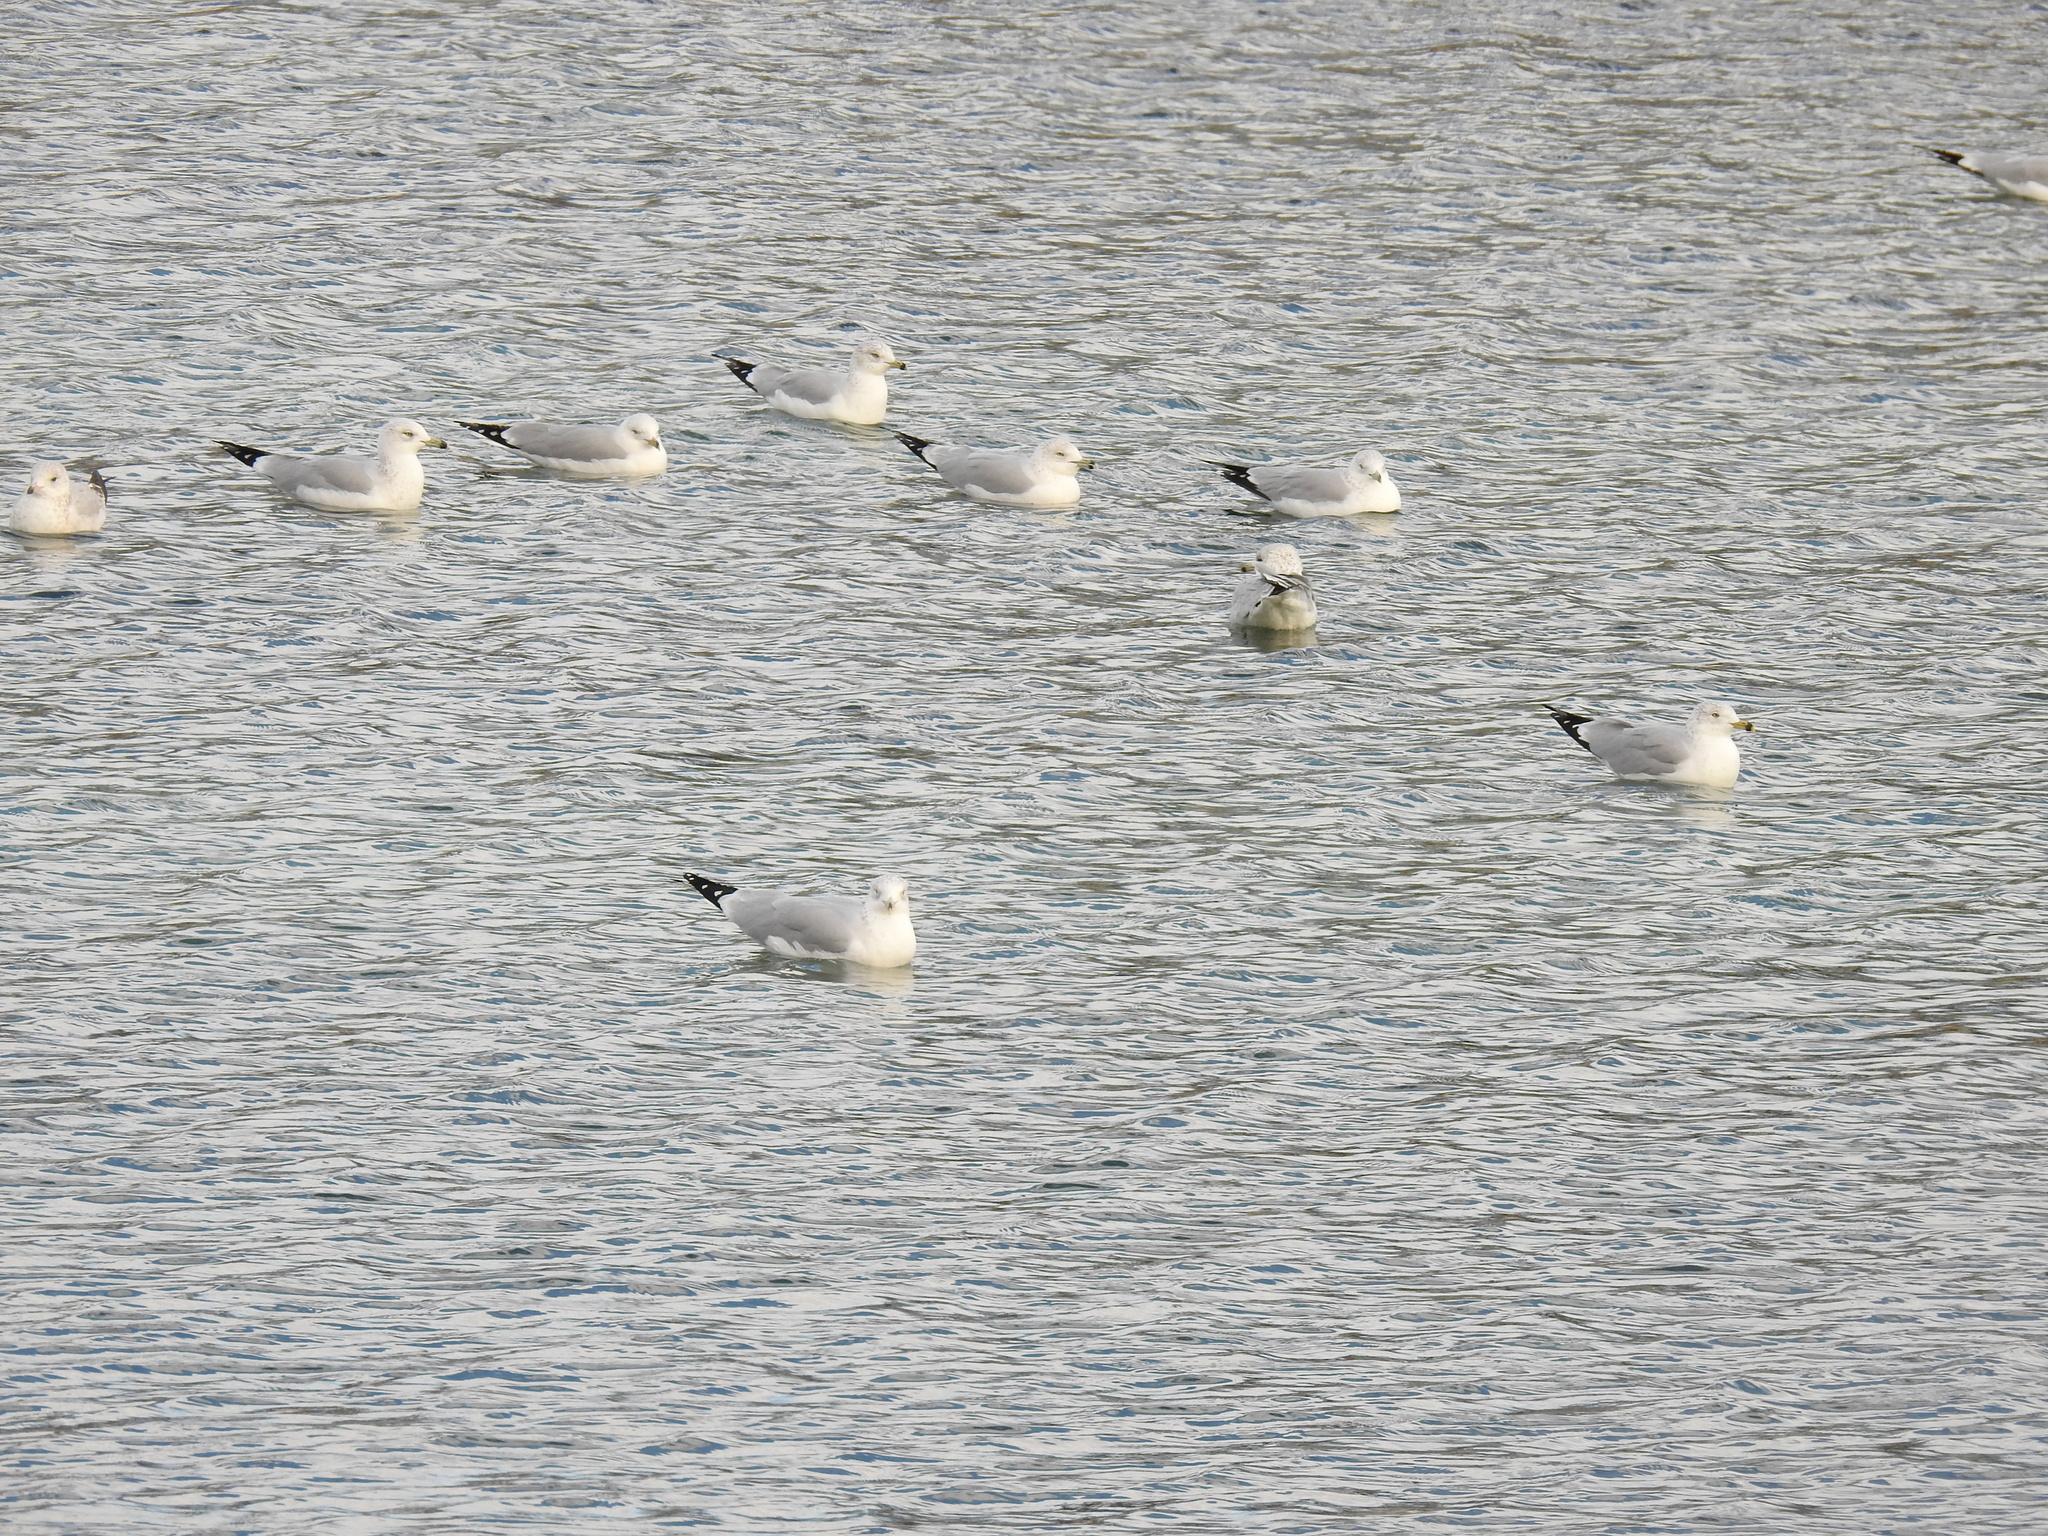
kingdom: Animalia
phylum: Chordata
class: Aves
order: Charadriiformes
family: Laridae
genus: Larus
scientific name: Larus delawarensis
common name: Ring-billed gull
